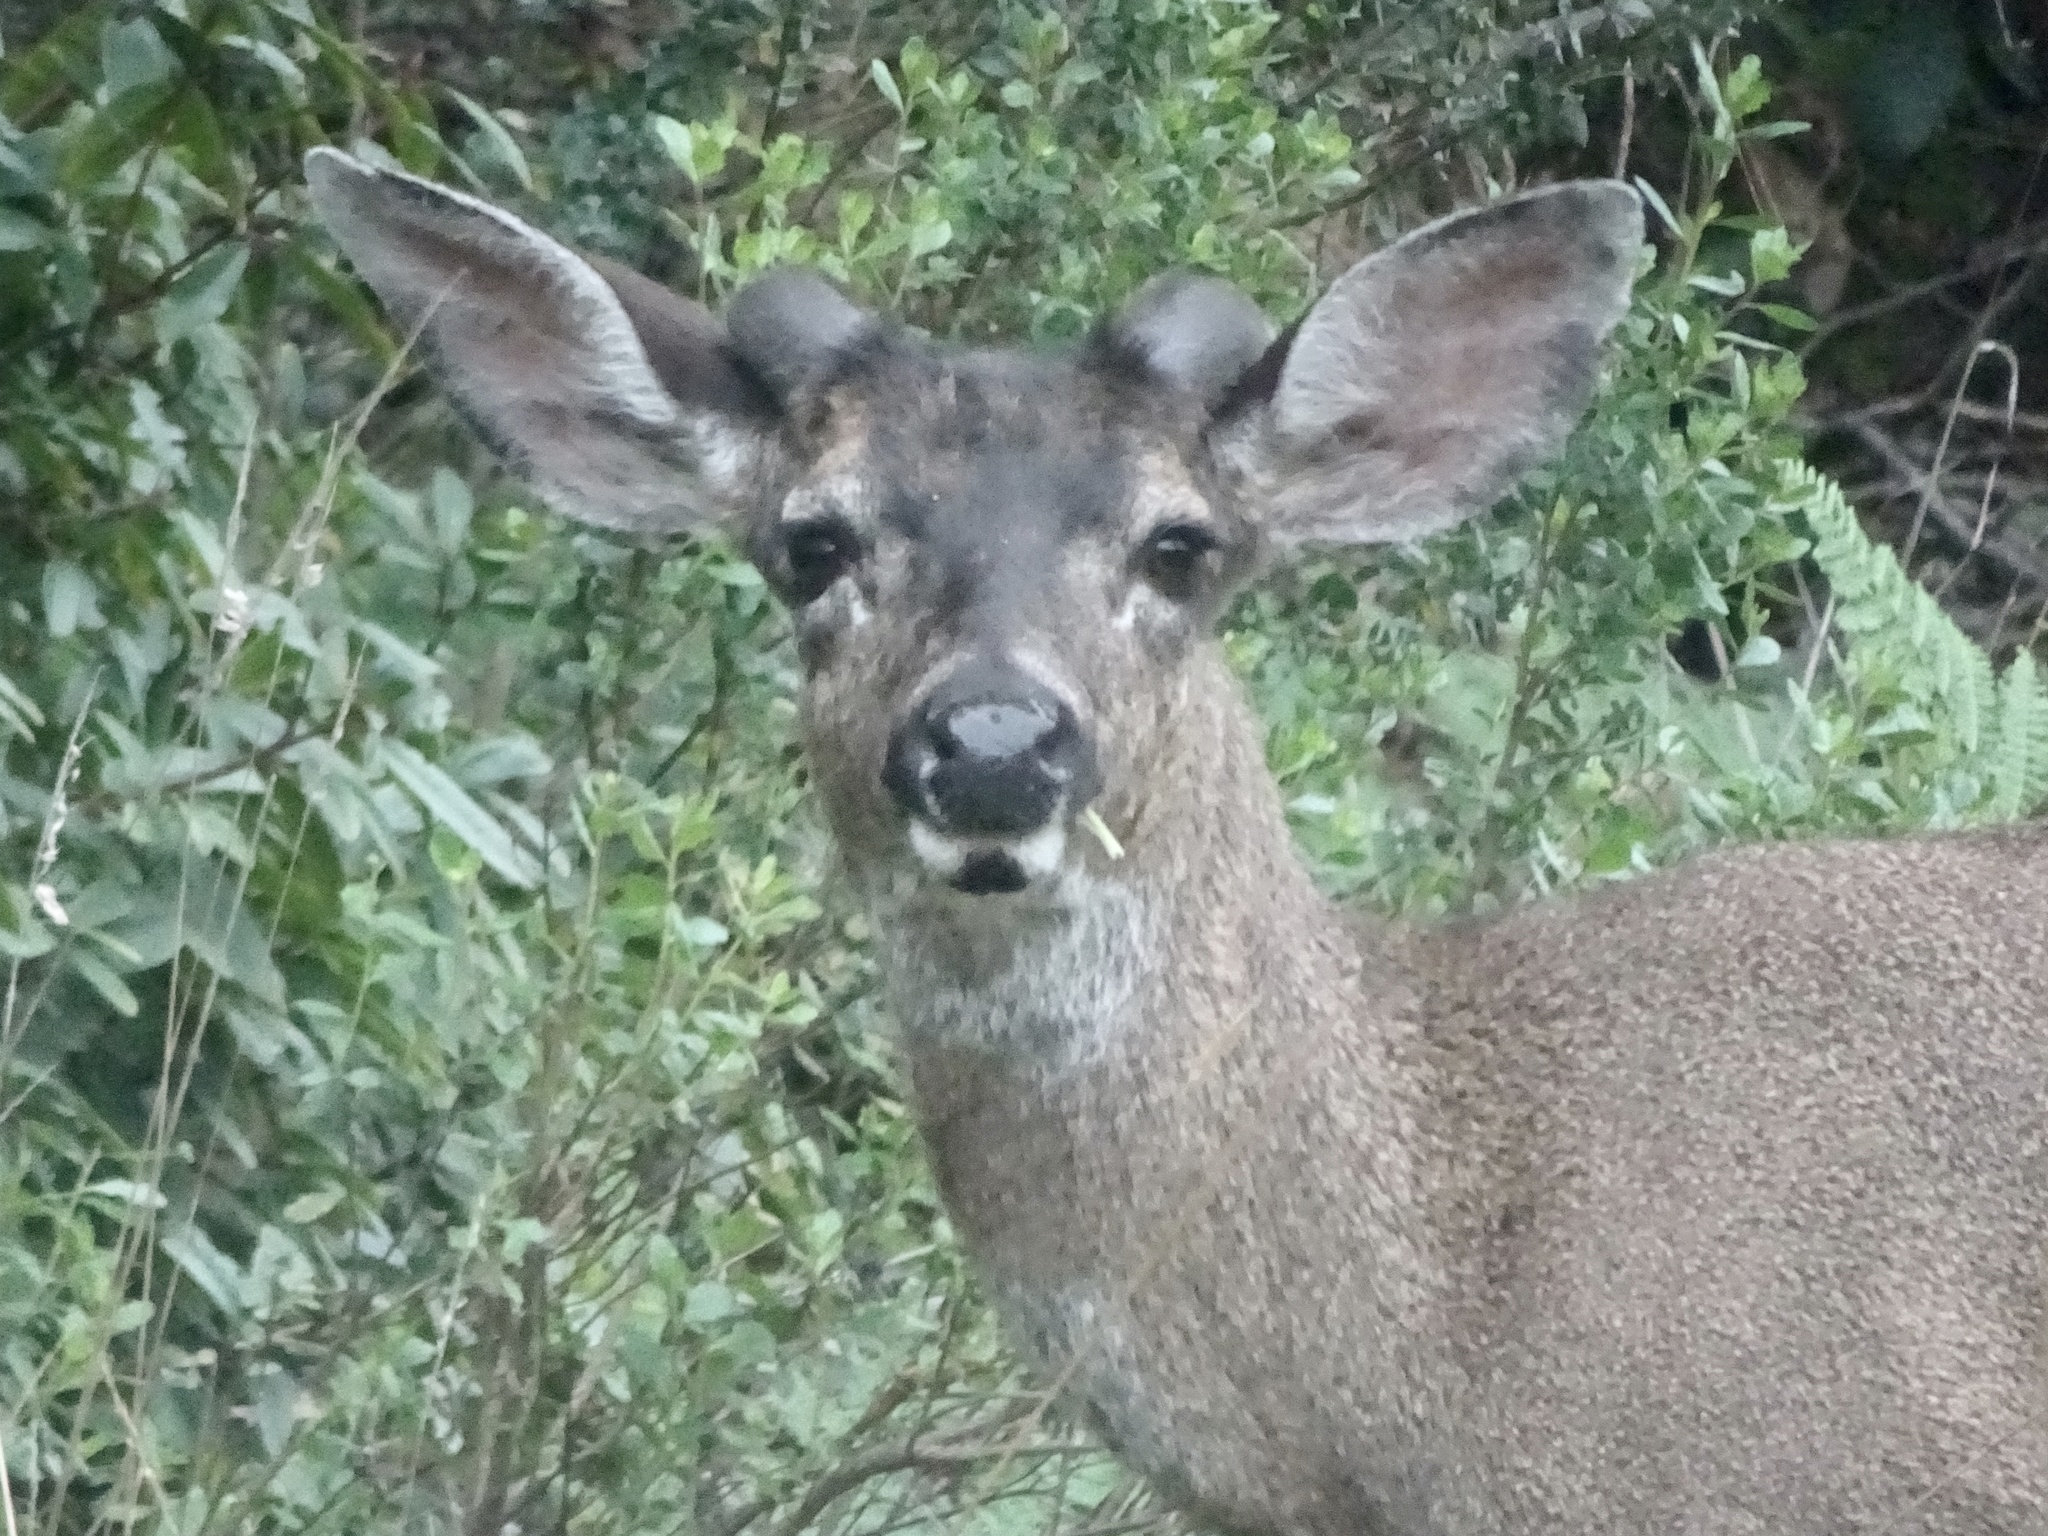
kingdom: Animalia
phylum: Chordata
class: Mammalia
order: Artiodactyla
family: Cervidae
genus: Odocoileus
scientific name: Odocoileus hemionus
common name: Mule deer
